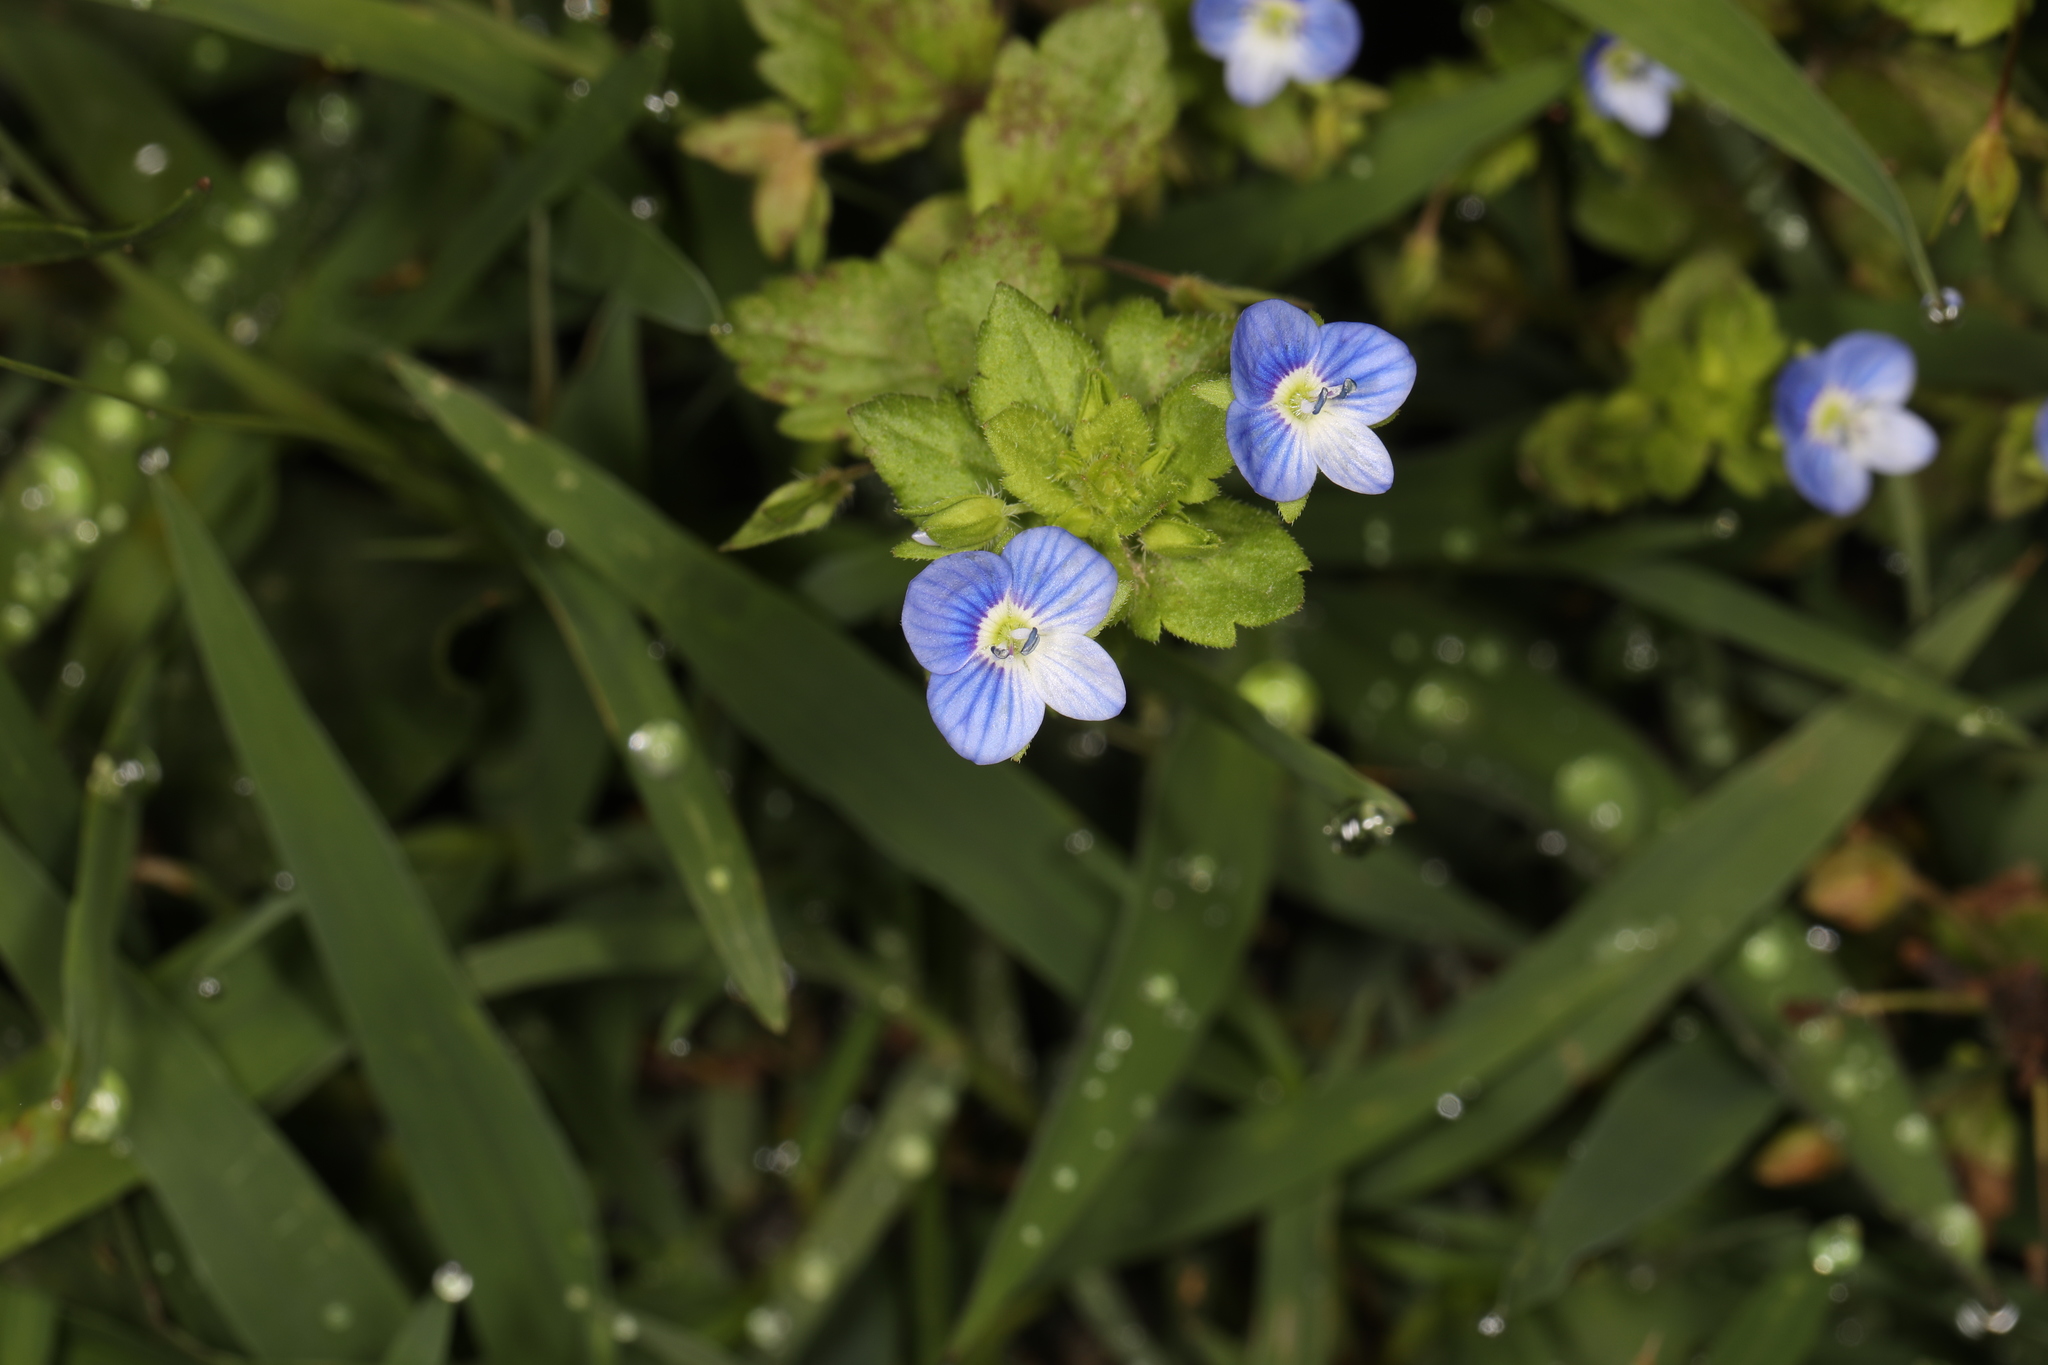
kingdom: Plantae
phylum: Tracheophyta
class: Magnoliopsida
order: Lamiales
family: Plantaginaceae
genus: Veronica
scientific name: Veronica persica
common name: Common field-speedwell
